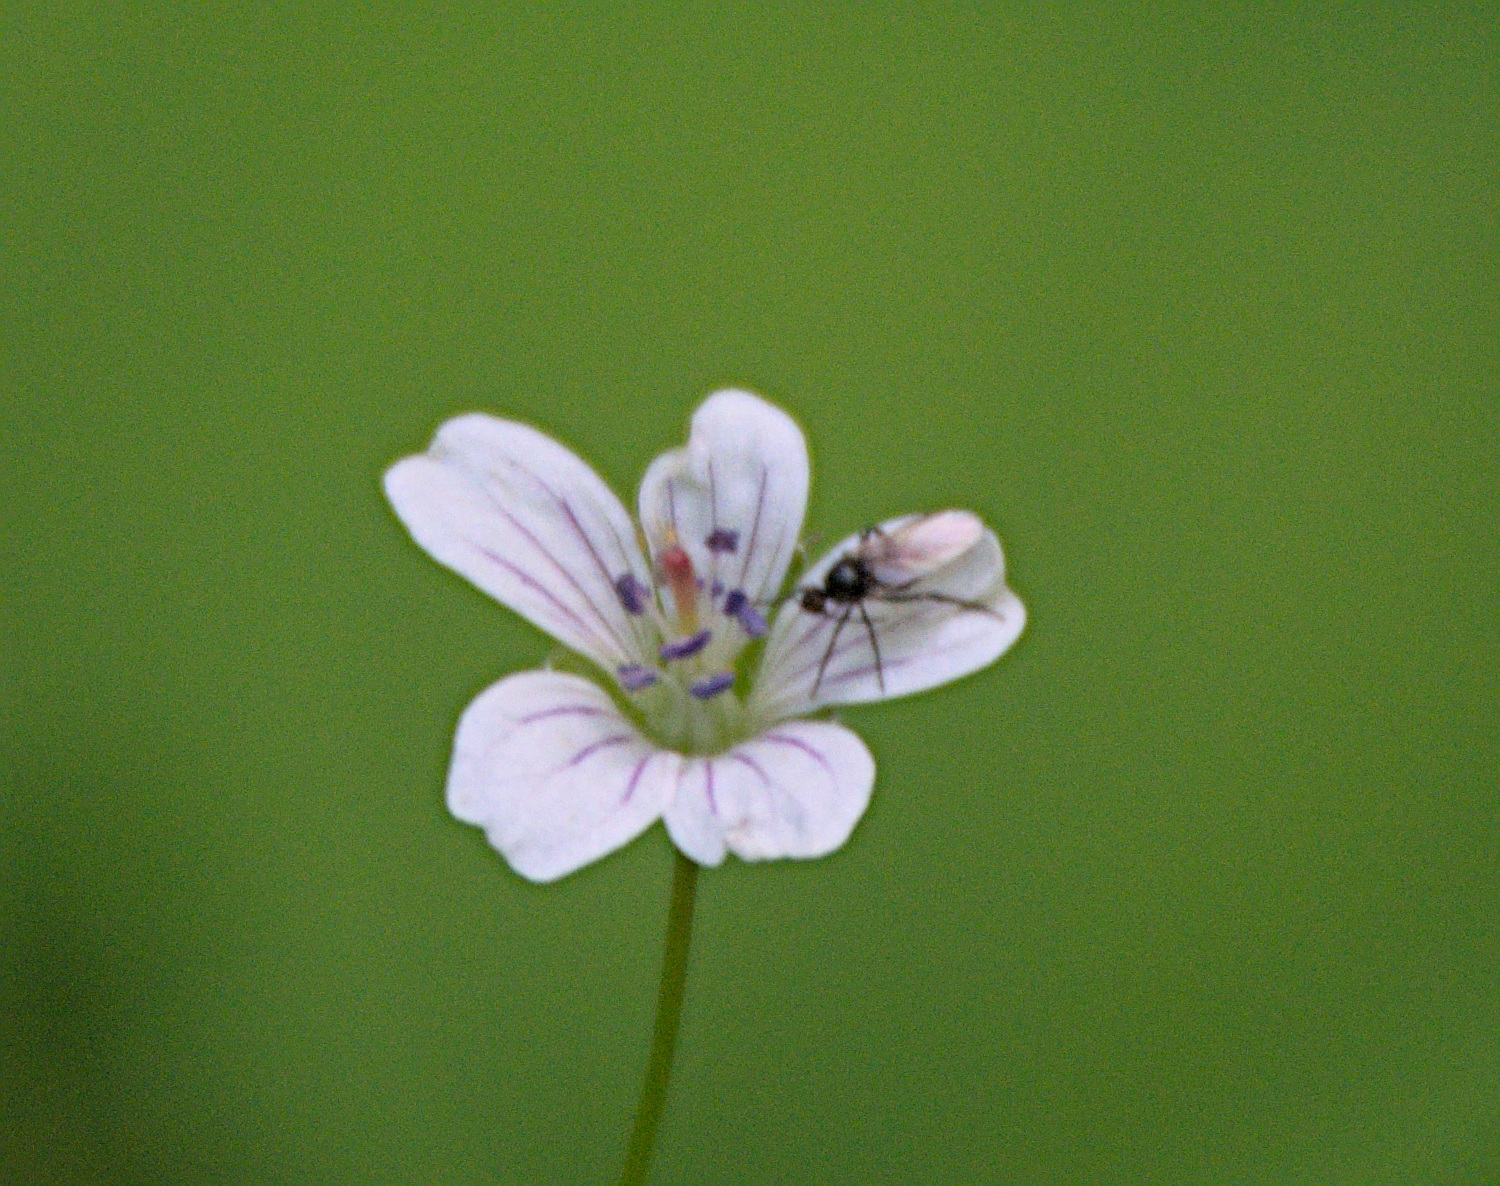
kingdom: Plantae
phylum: Tracheophyta
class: Magnoliopsida
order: Geraniales
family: Geraniaceae
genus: Geranium
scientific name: Geranium pseudosibiricum
